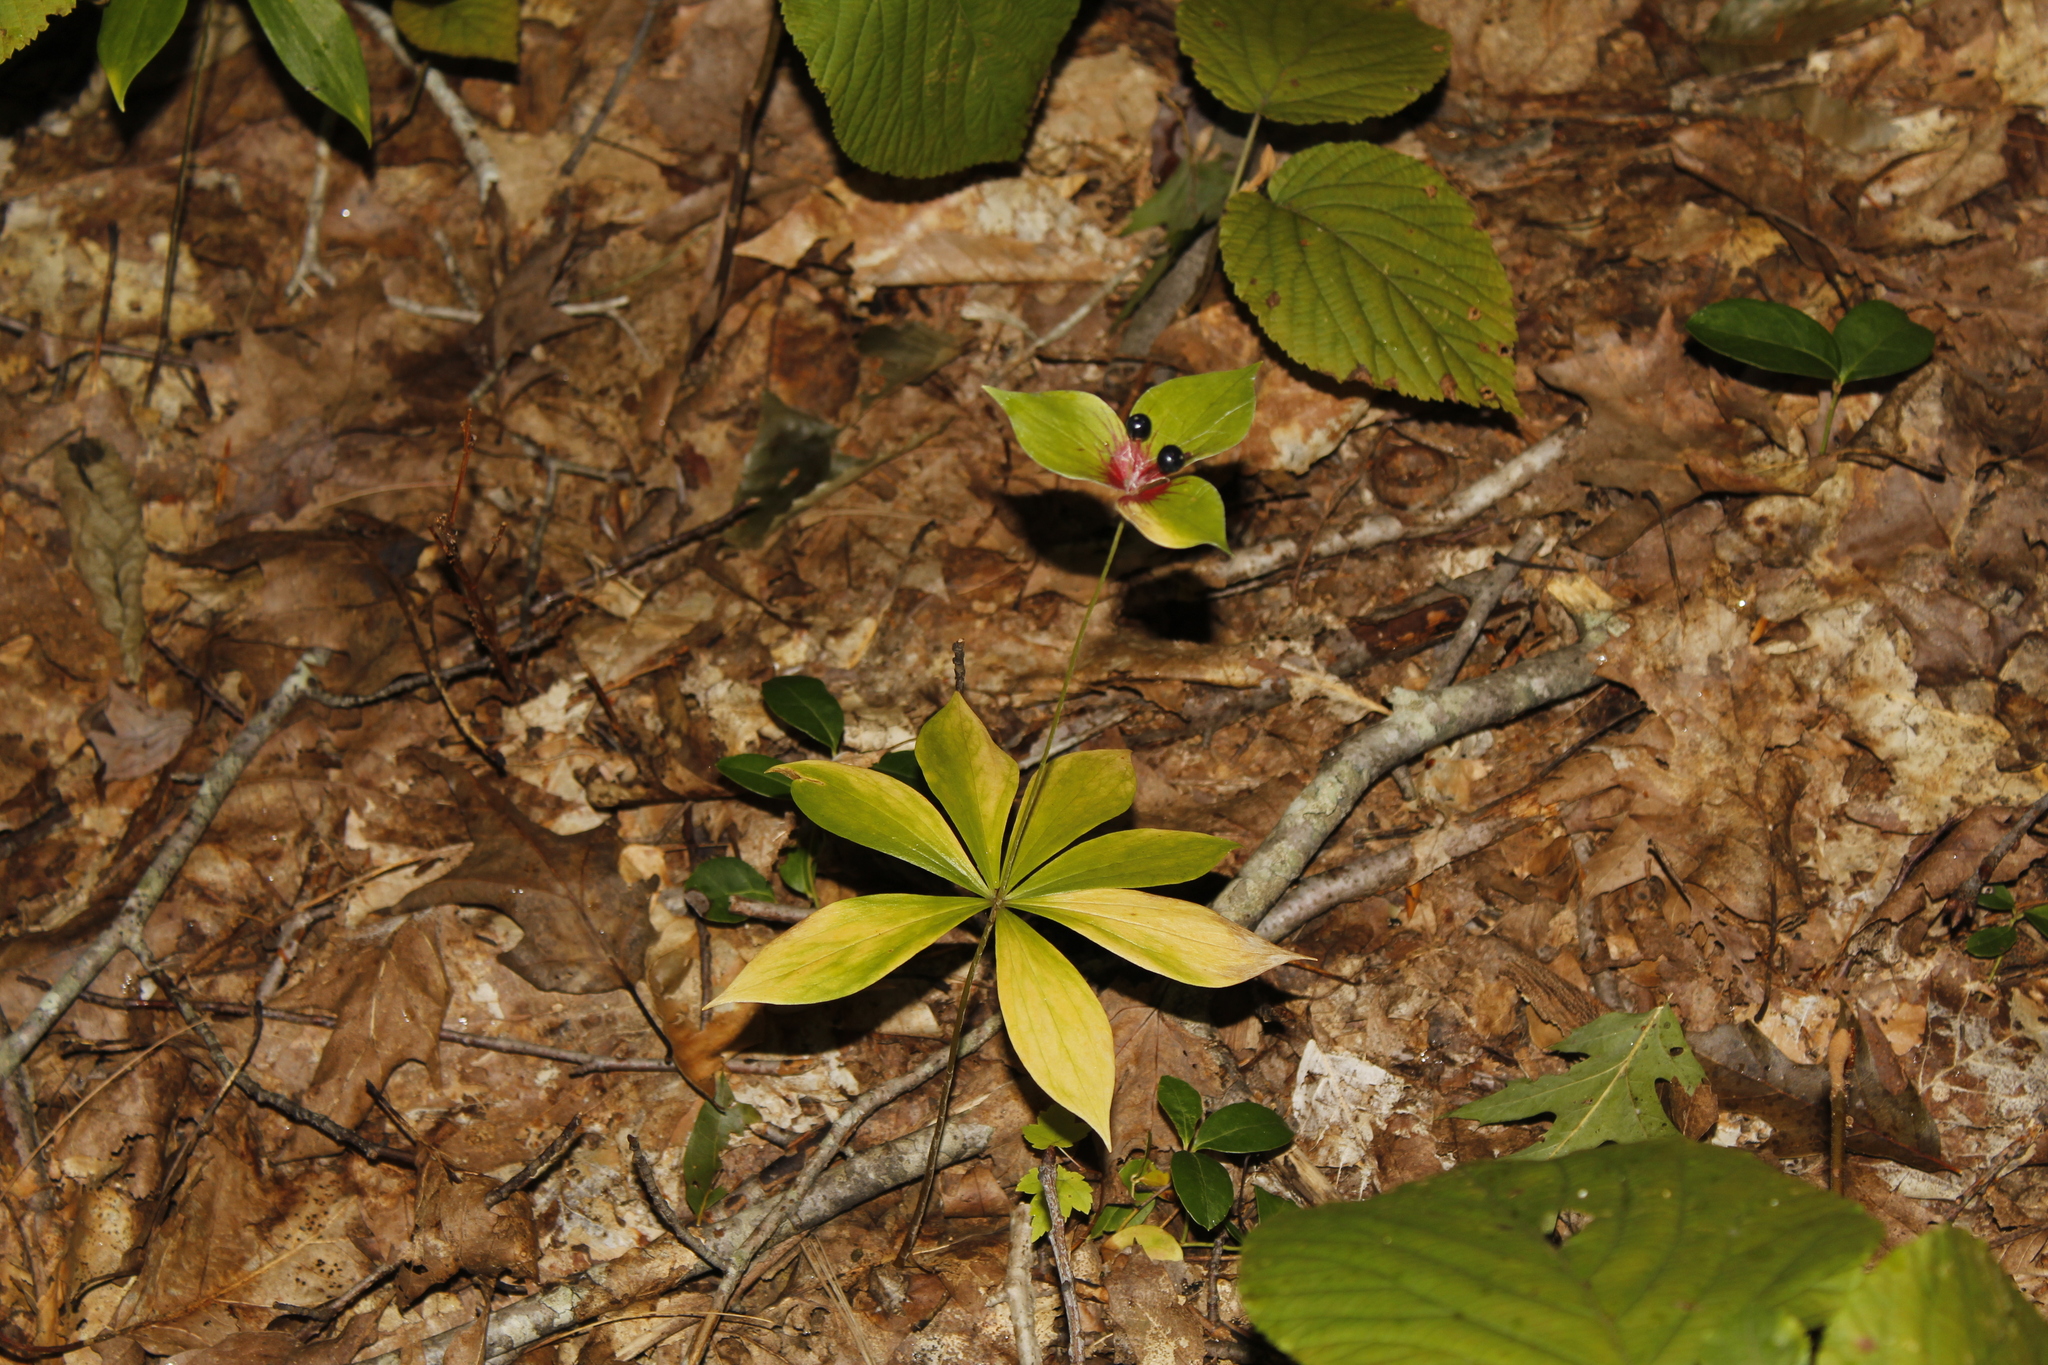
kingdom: Plantae
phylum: Tracheophyta
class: Liliopsida
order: Liliales
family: Liliaceae
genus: Medeola
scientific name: Medeola virginiana
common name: Indian cucumber-root
